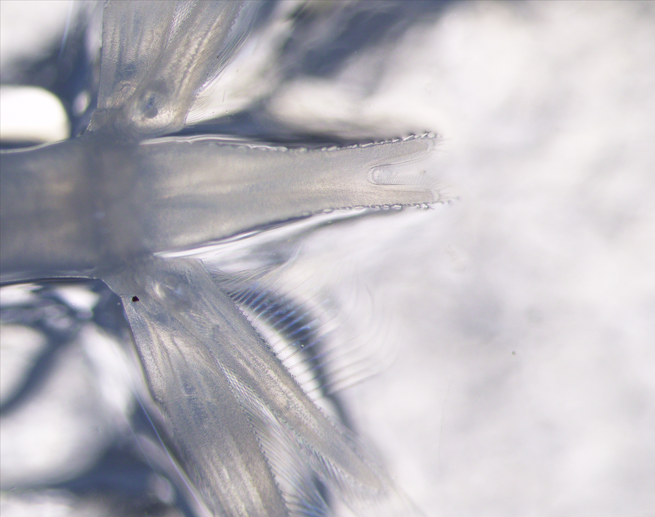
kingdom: Animalia
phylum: Arthropoda
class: Malacostraca
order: Mysida
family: Mysidae
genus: Boreomysis
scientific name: Boreomysis arctica
